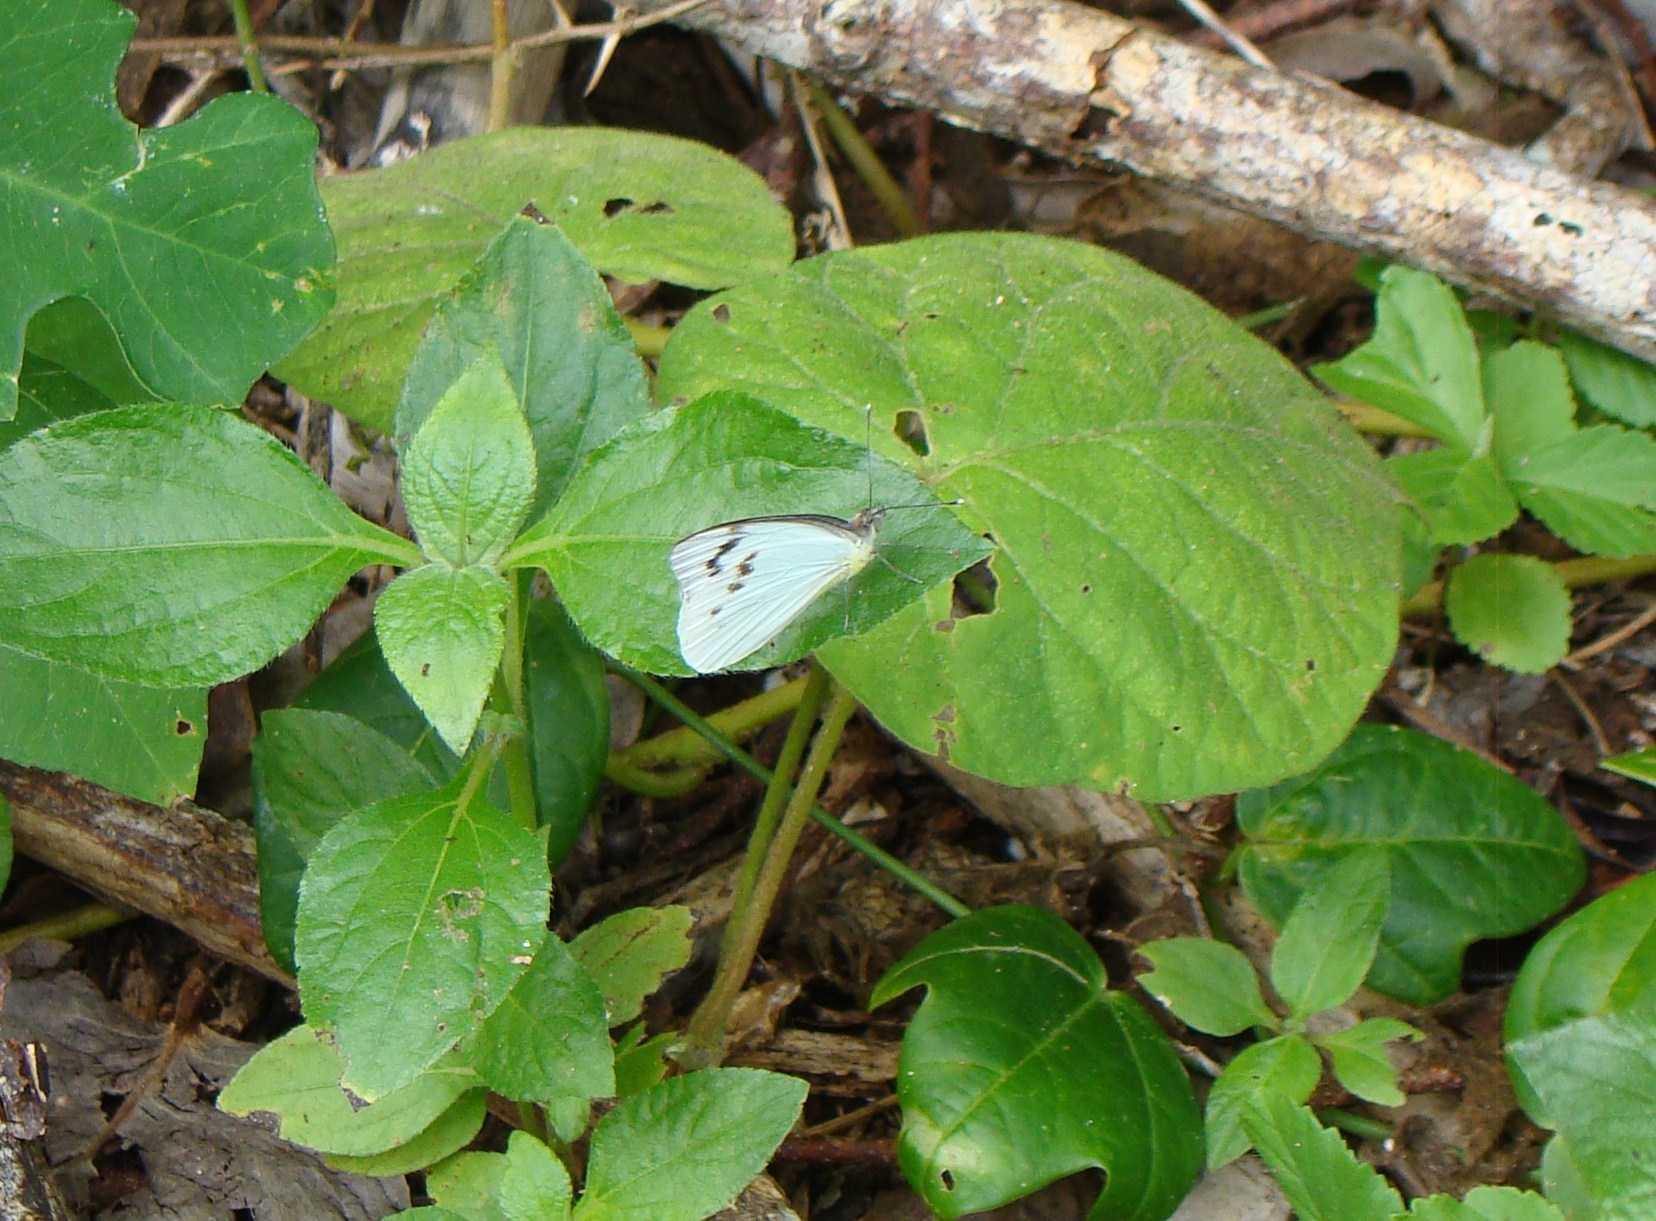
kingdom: Animalia
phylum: Arthropoda
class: Insecta
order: Lepidoptera
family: Pieridae
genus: Elodina
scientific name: Elodina pseudanops
